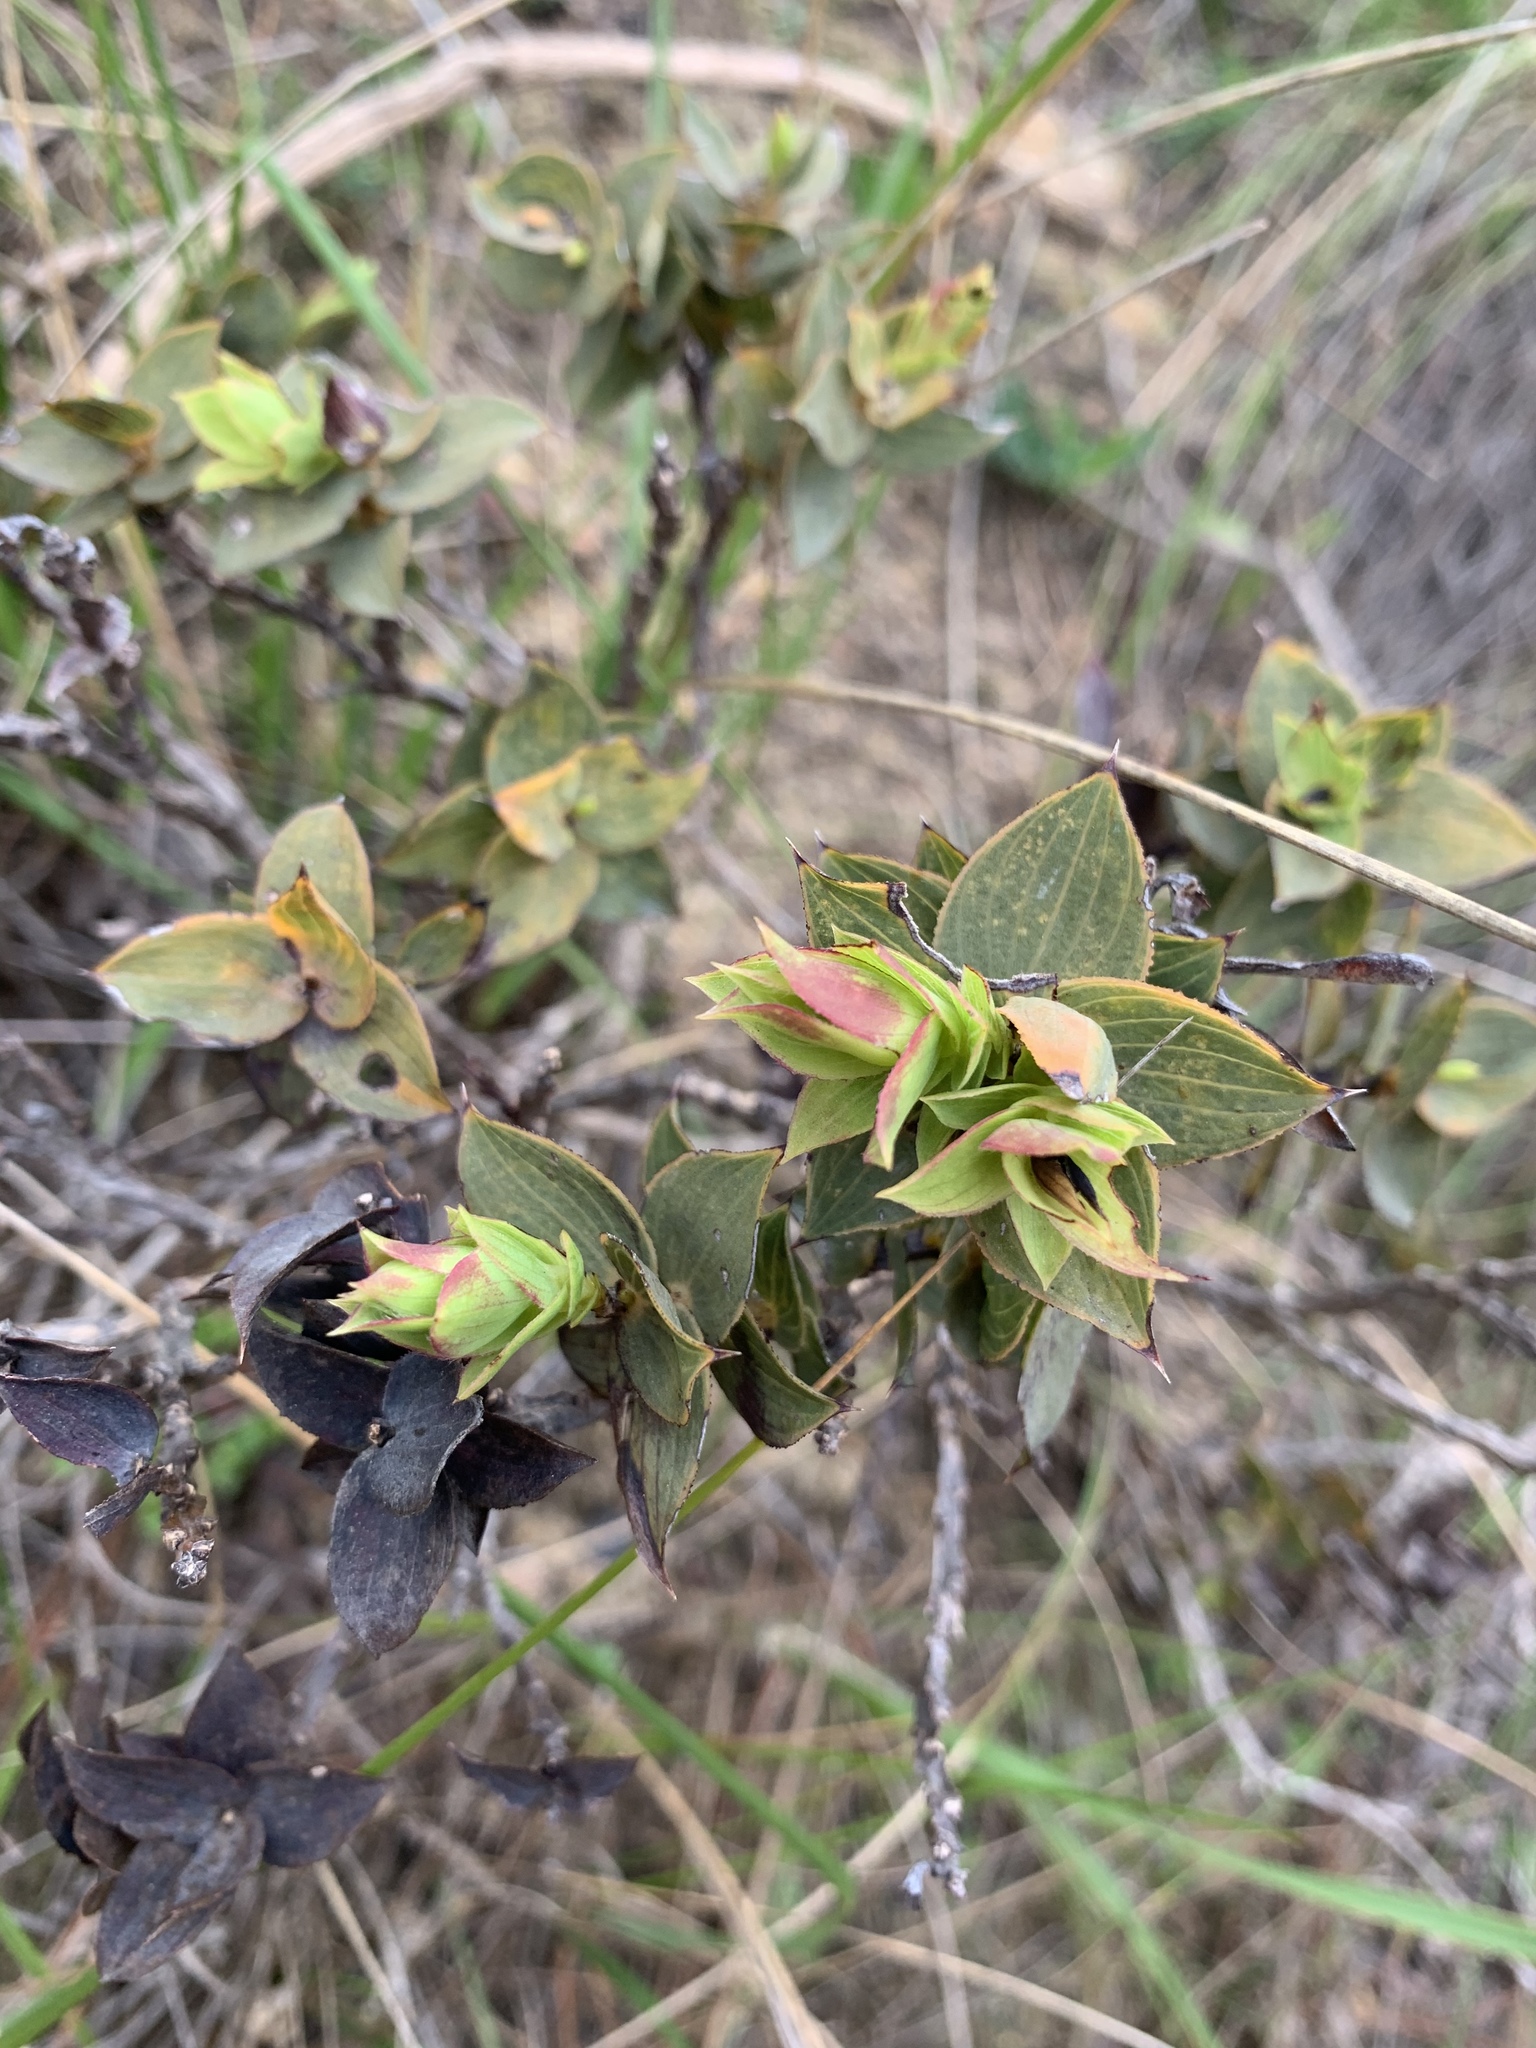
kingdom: Plantae
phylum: Tracheophyta
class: Magnoliopsida
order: Fabales
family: Fabaceae
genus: Aspalathus
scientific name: Aspalathus crenata
